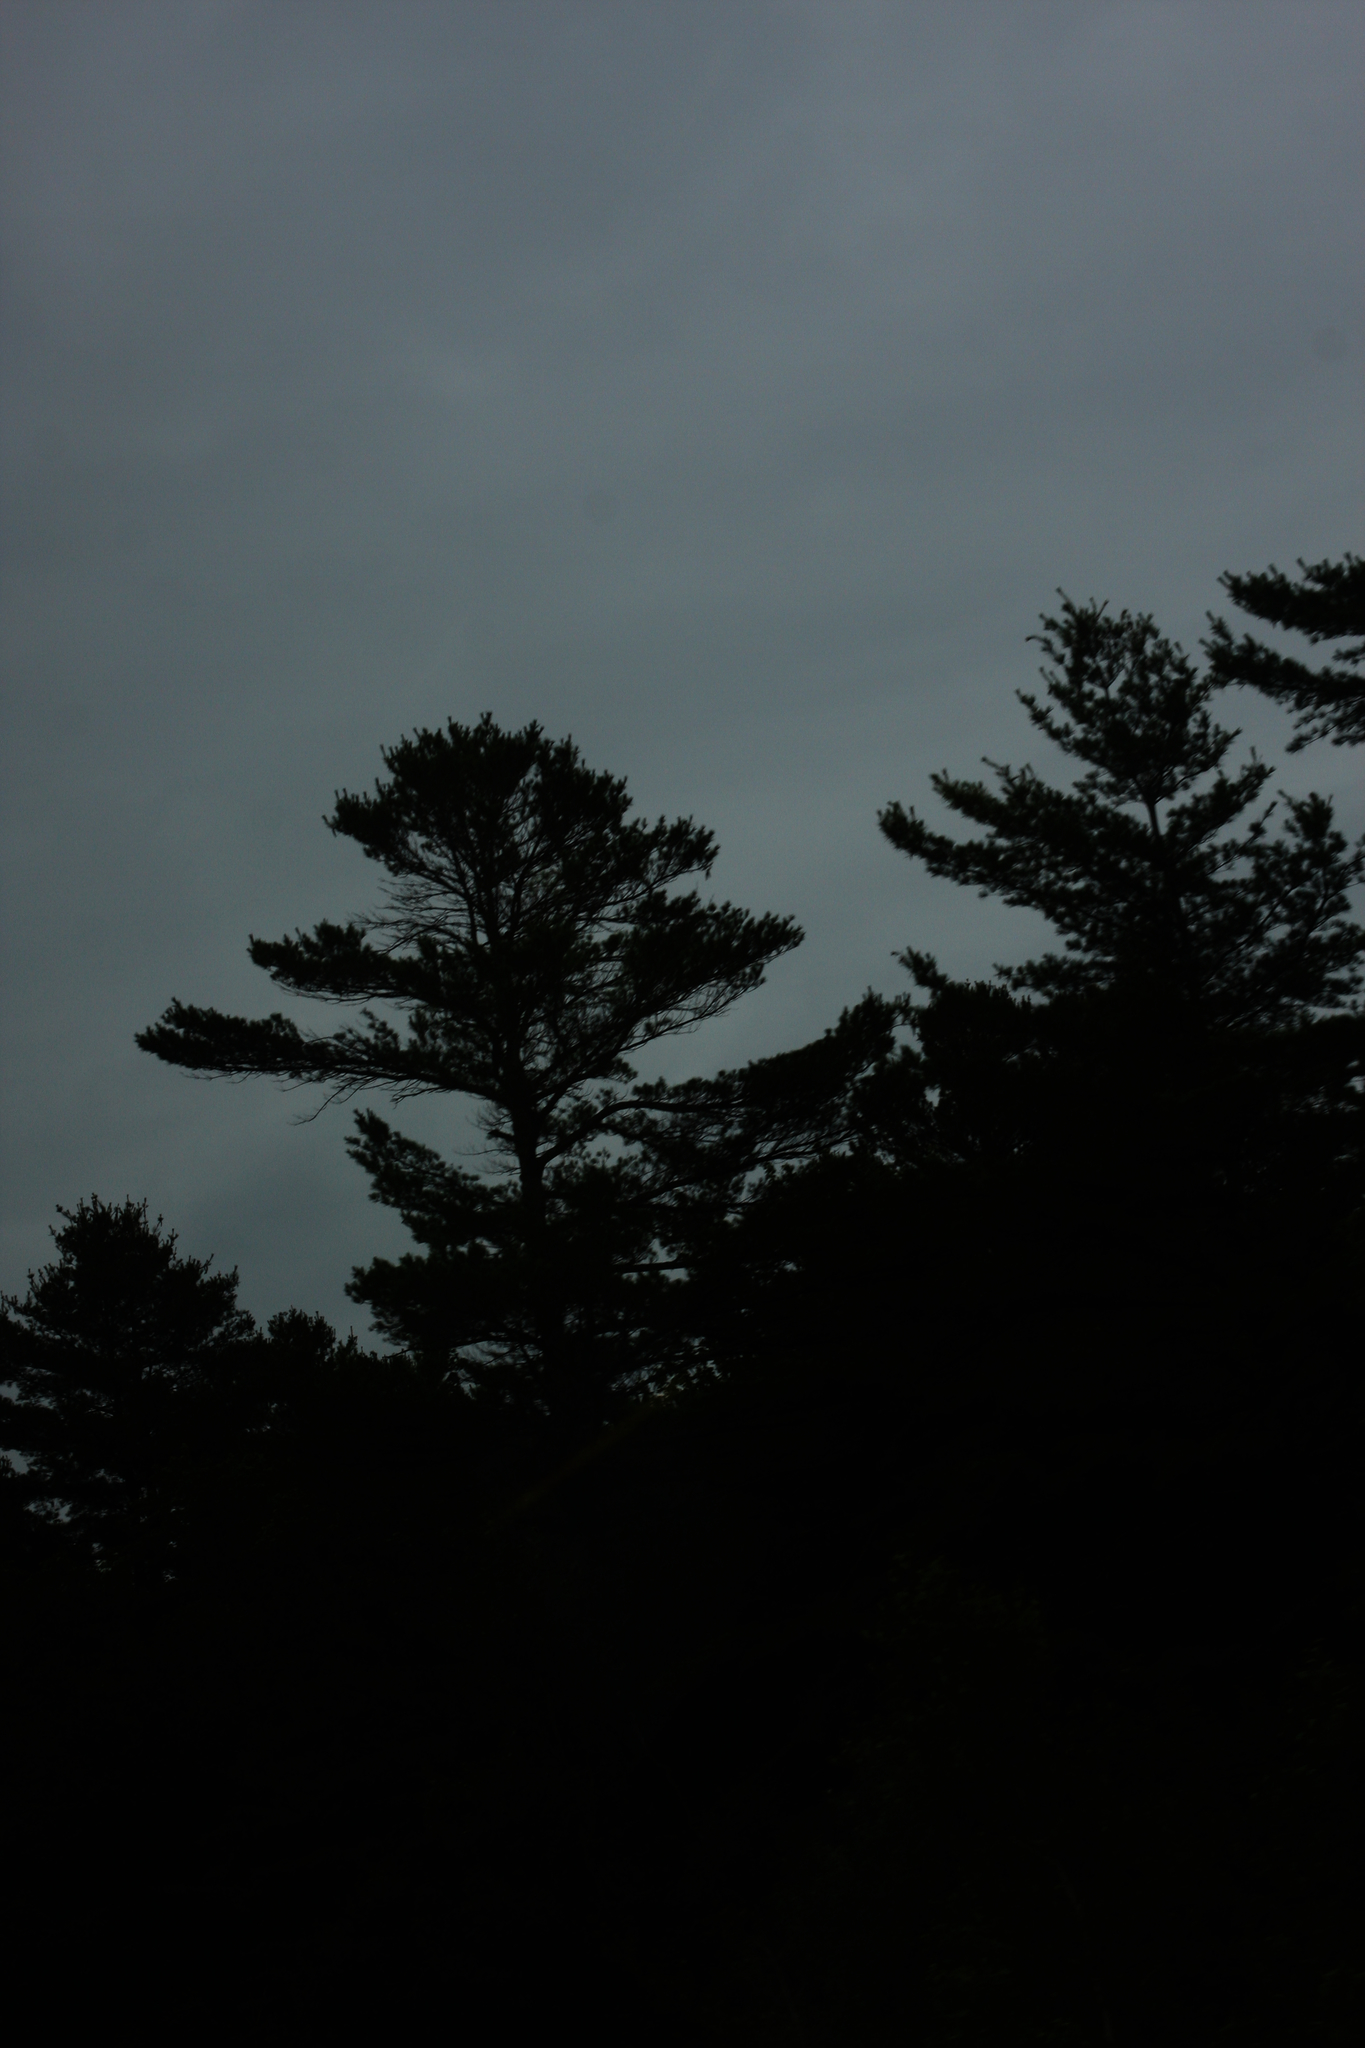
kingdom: Plantae
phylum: Tracheophyta
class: Pinopsida
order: Pinales
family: Pinaceae
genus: Pinus
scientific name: Pinus strobus
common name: Weymouth pine
